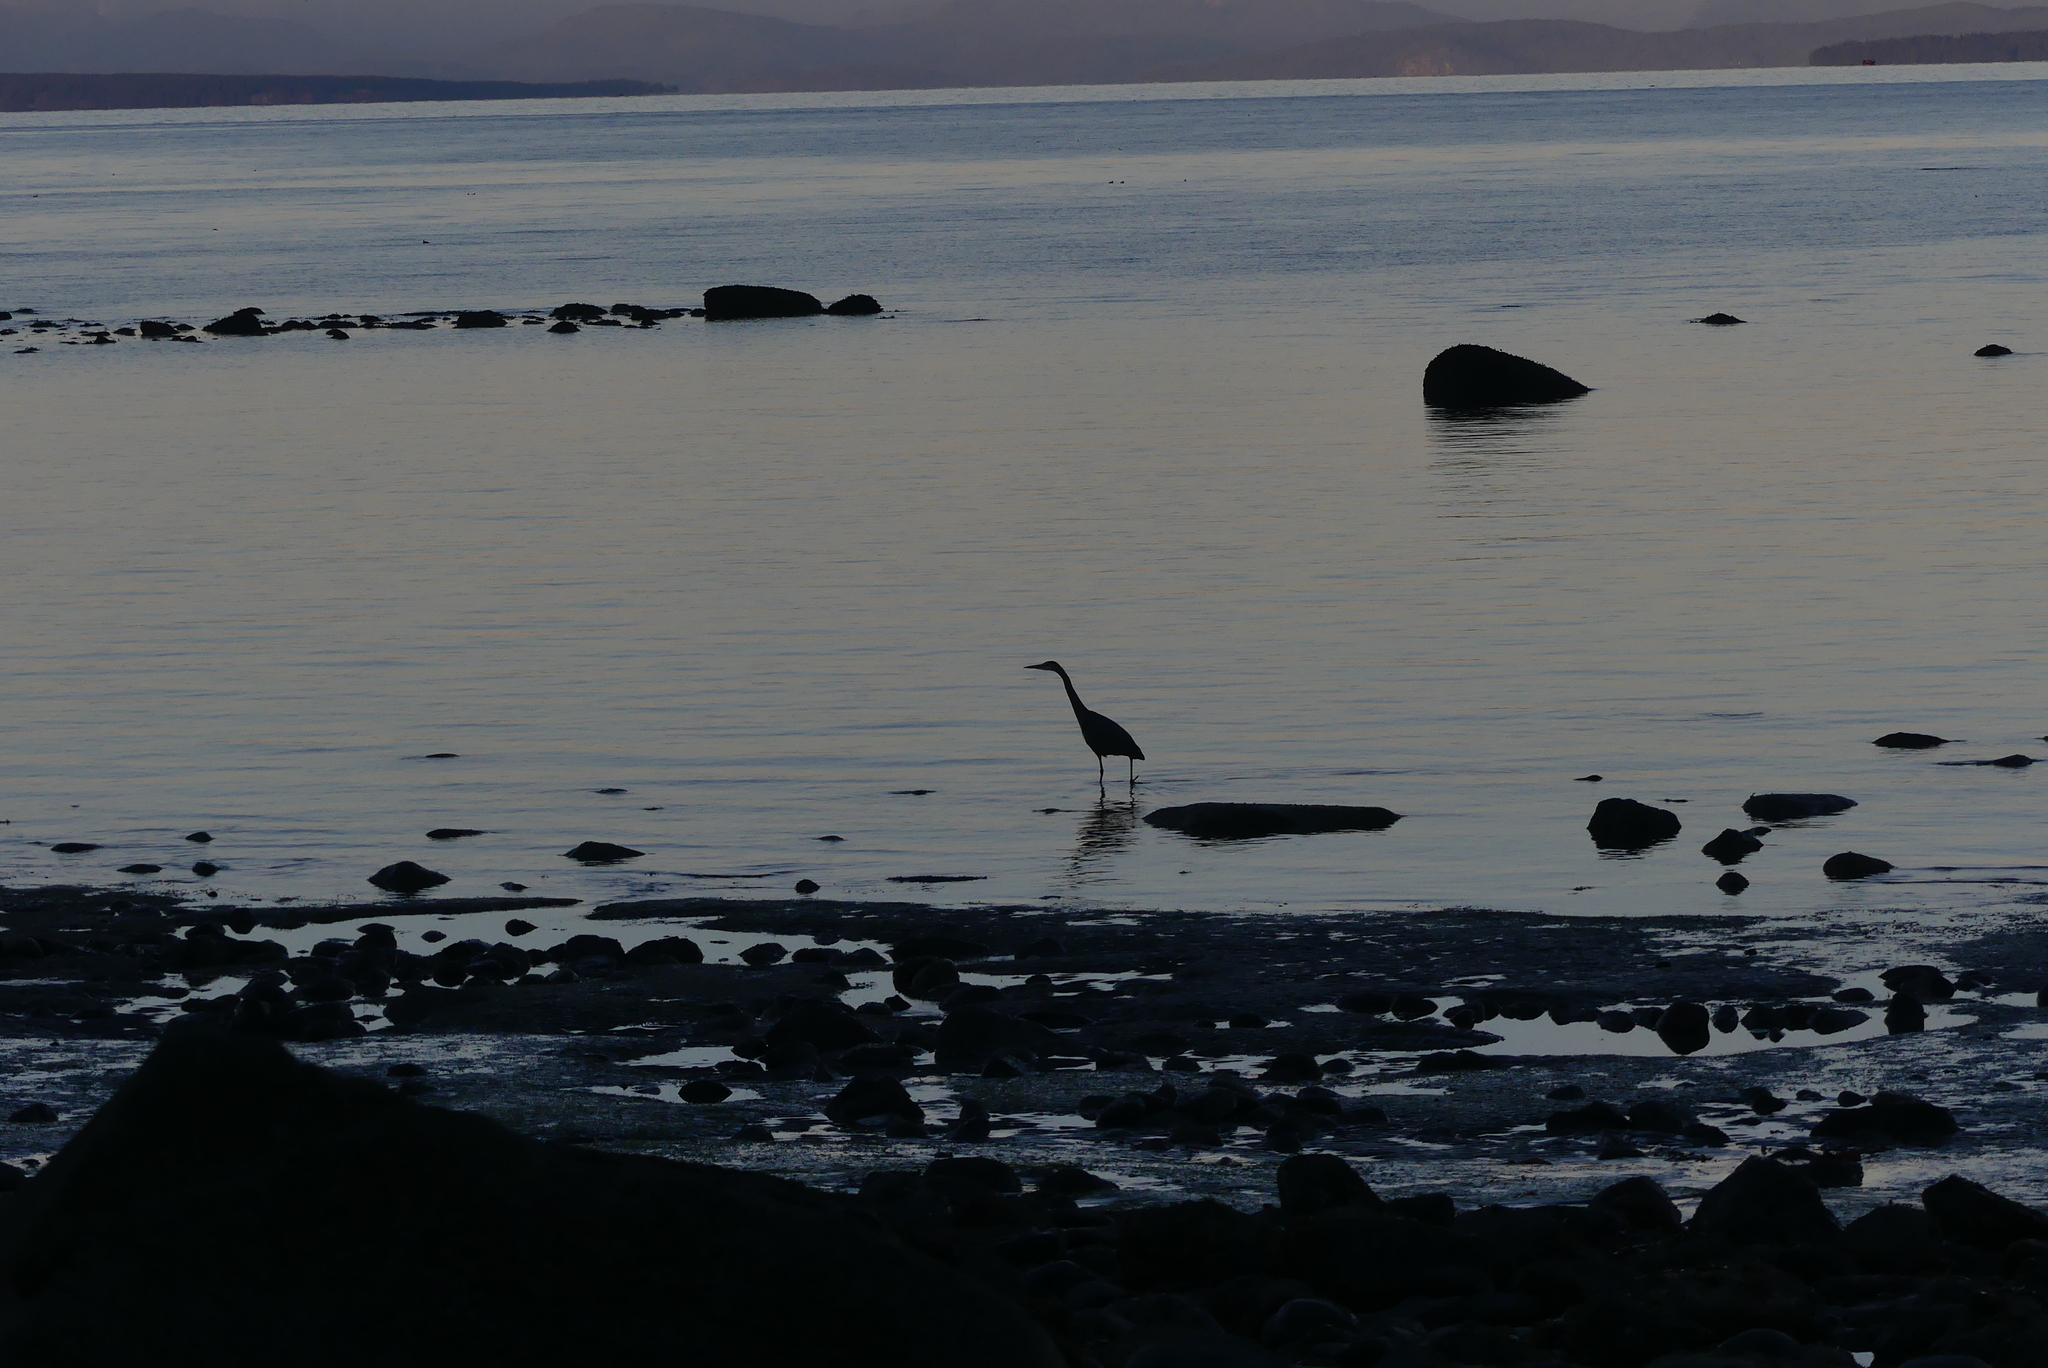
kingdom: Animalia
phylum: Chordata
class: Aves
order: Pelecaniformes
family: Ardeidae
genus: Ardea
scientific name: Ardea herodias
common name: Great blue heron
